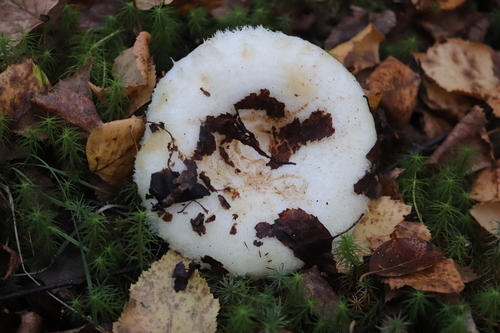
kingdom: Fungi
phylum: Basidiomycota
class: Agaricomycetes
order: Russulales
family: Russulaceae
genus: Lactarius
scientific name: Lactarius aquizonatus
